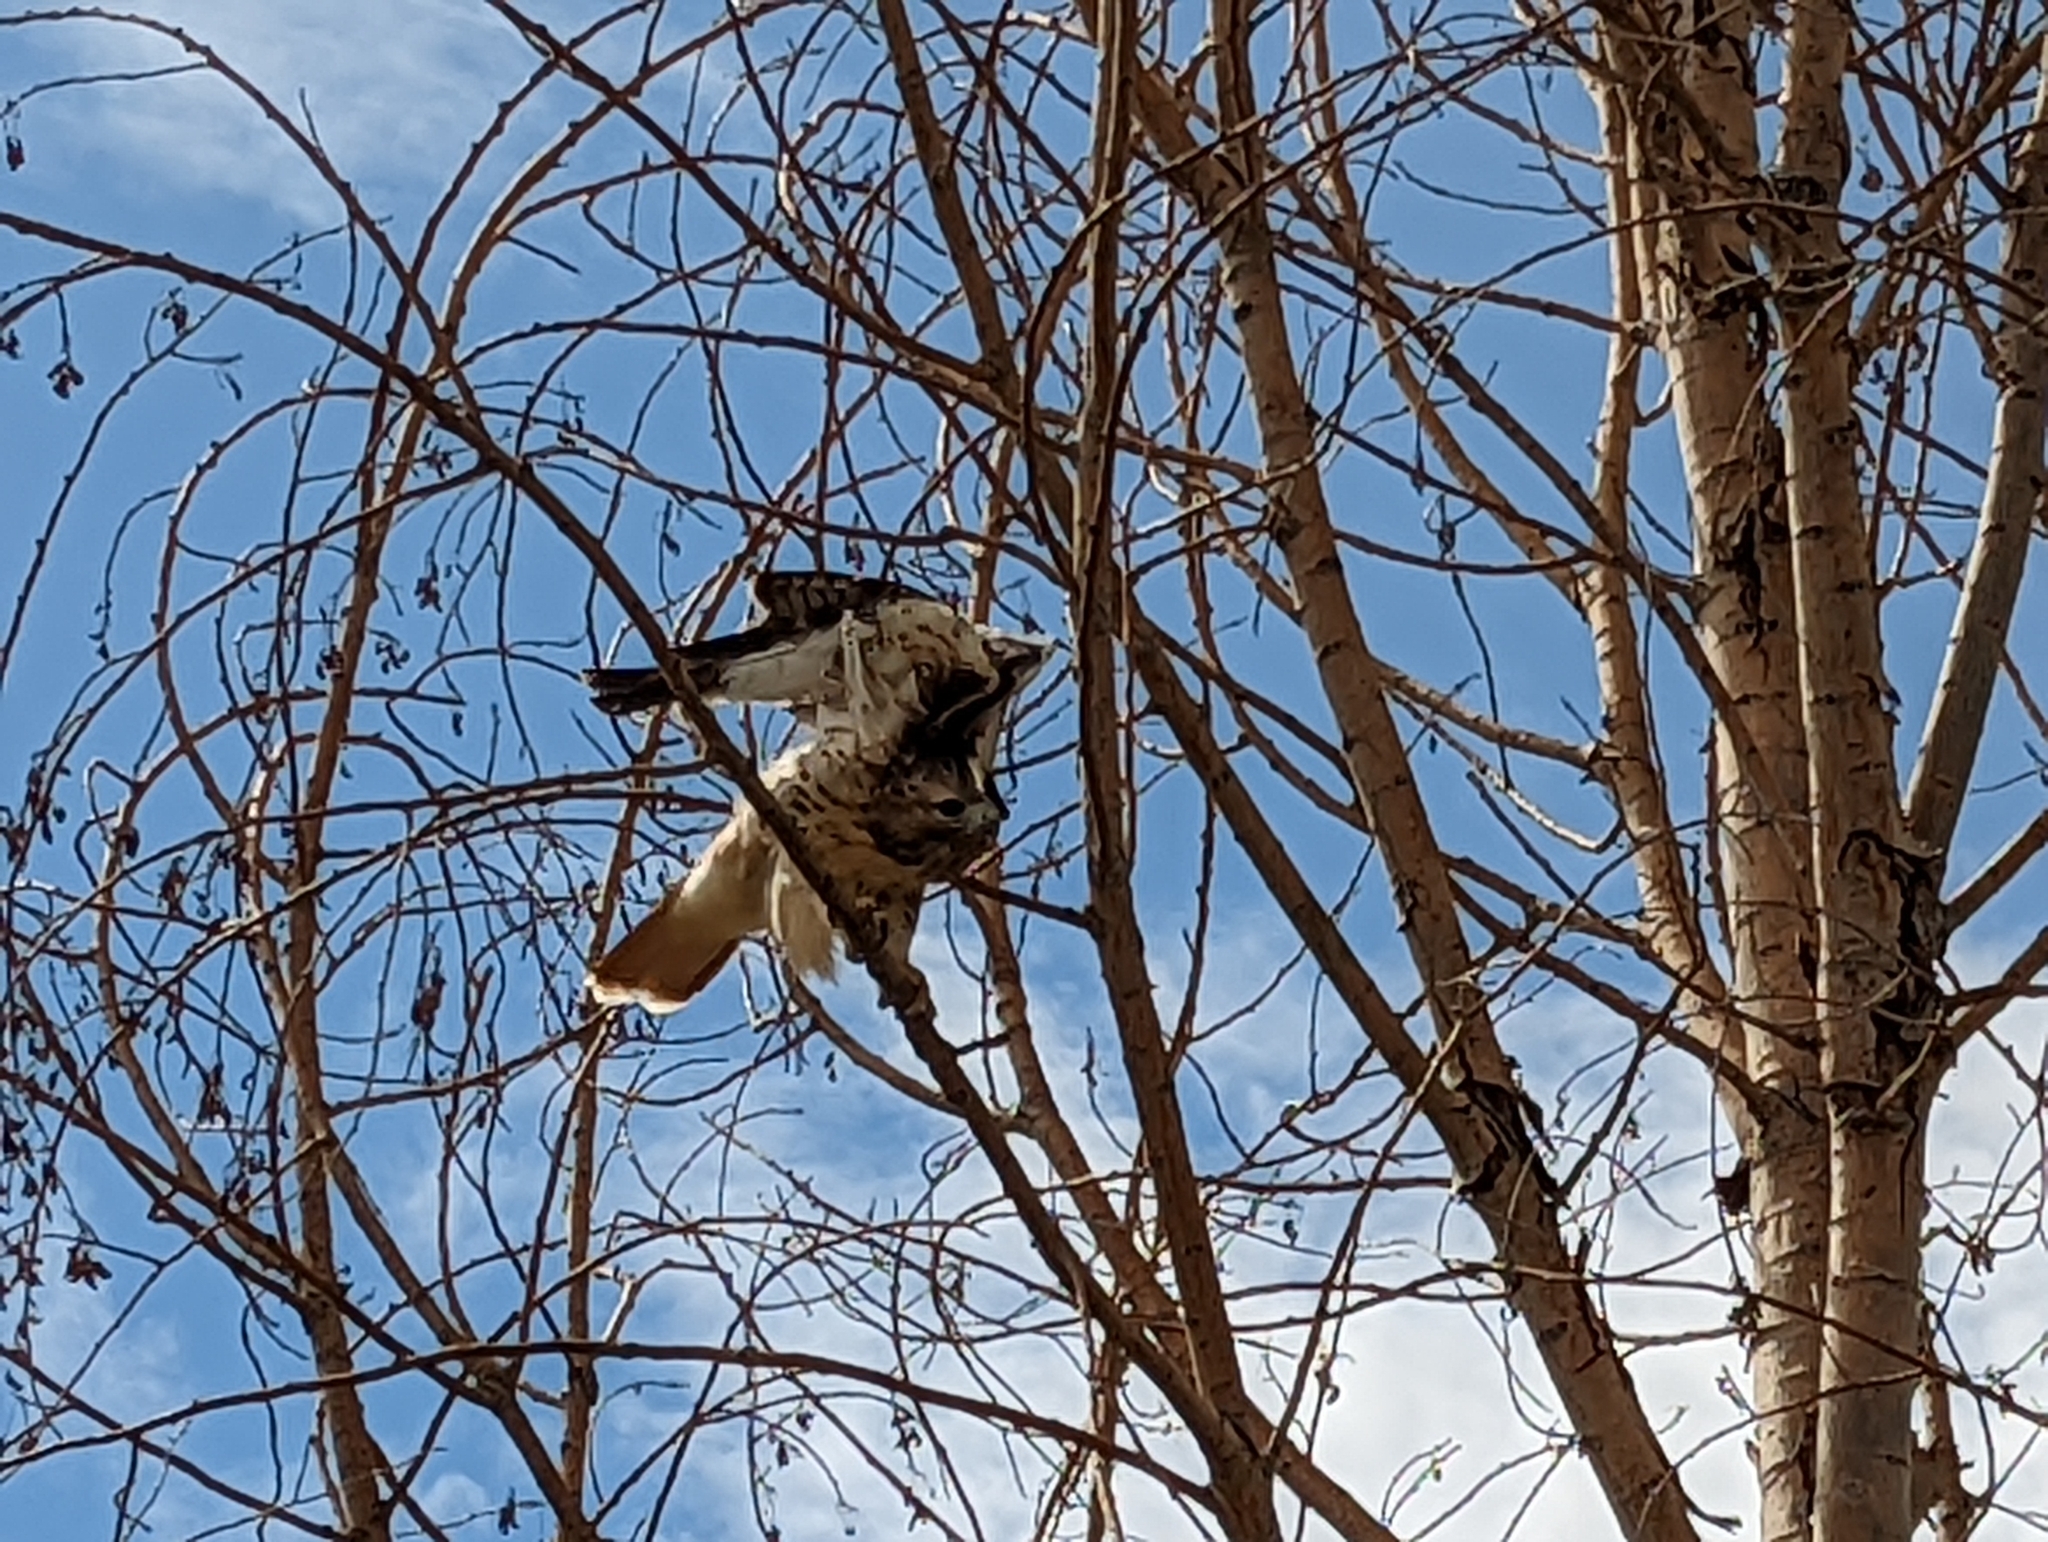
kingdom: Animalia
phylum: Chordata
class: Aves
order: Accipitriformes
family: Accipitridae
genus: Buteo
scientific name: Buteo jamaicensis
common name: Red-tailed hawk
